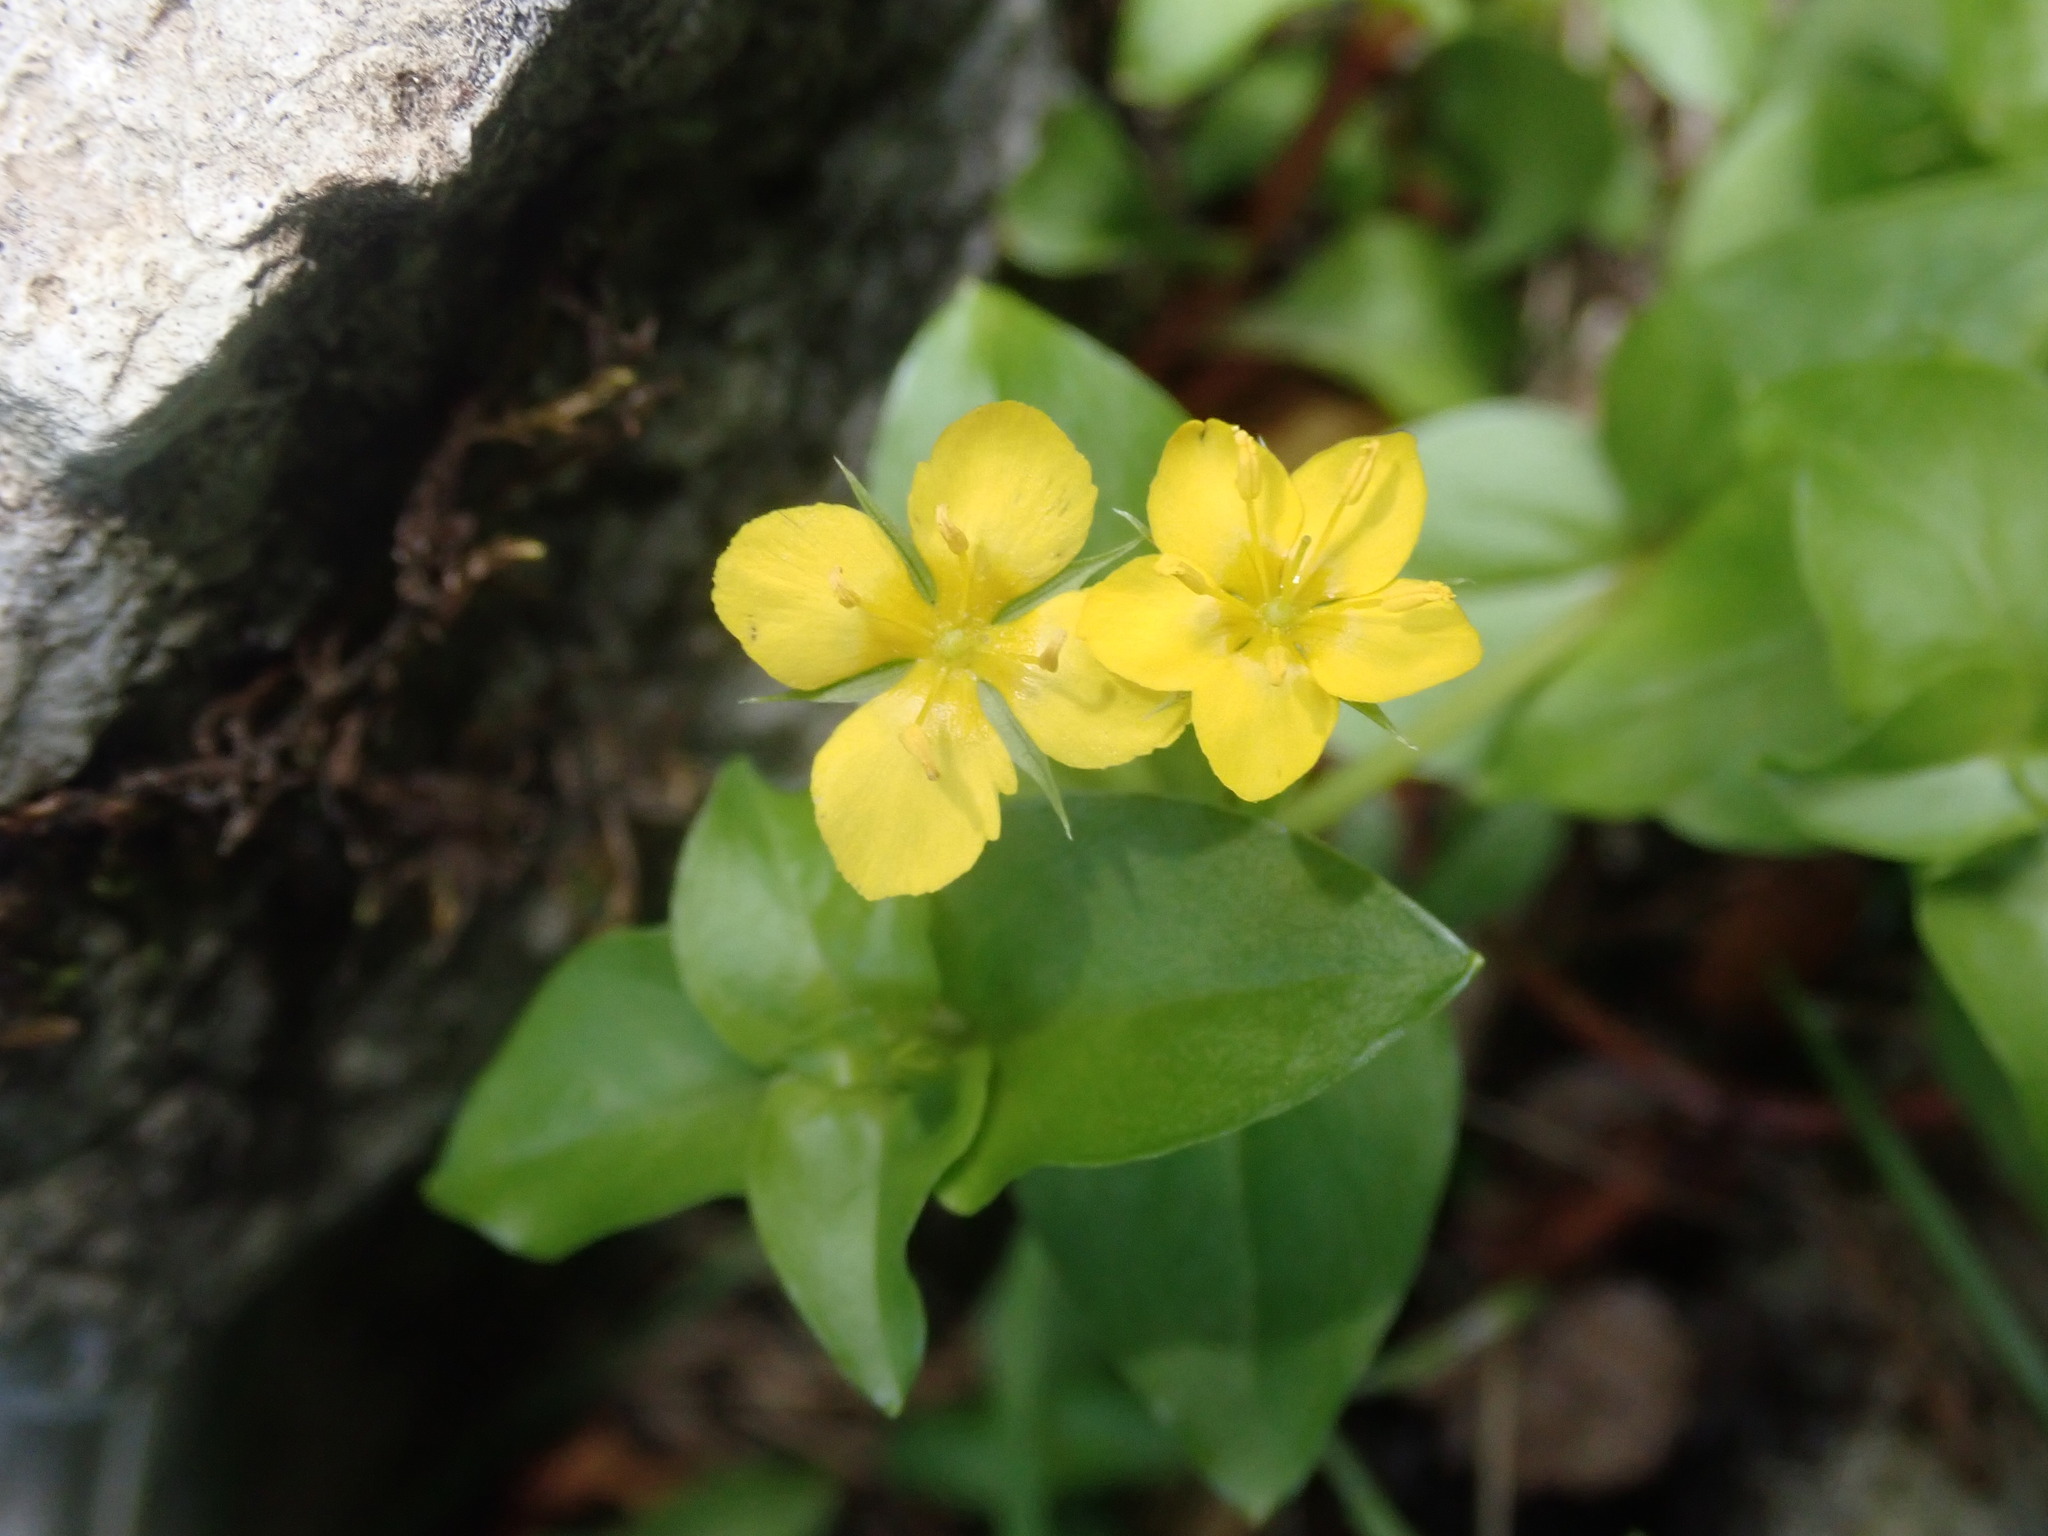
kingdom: Plantae
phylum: Tracheophyta
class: Magnoliopsida
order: Ericales
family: Primulaceae
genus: Lysimachia
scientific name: Lysimachia nemorum
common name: Yellow pimpernel
